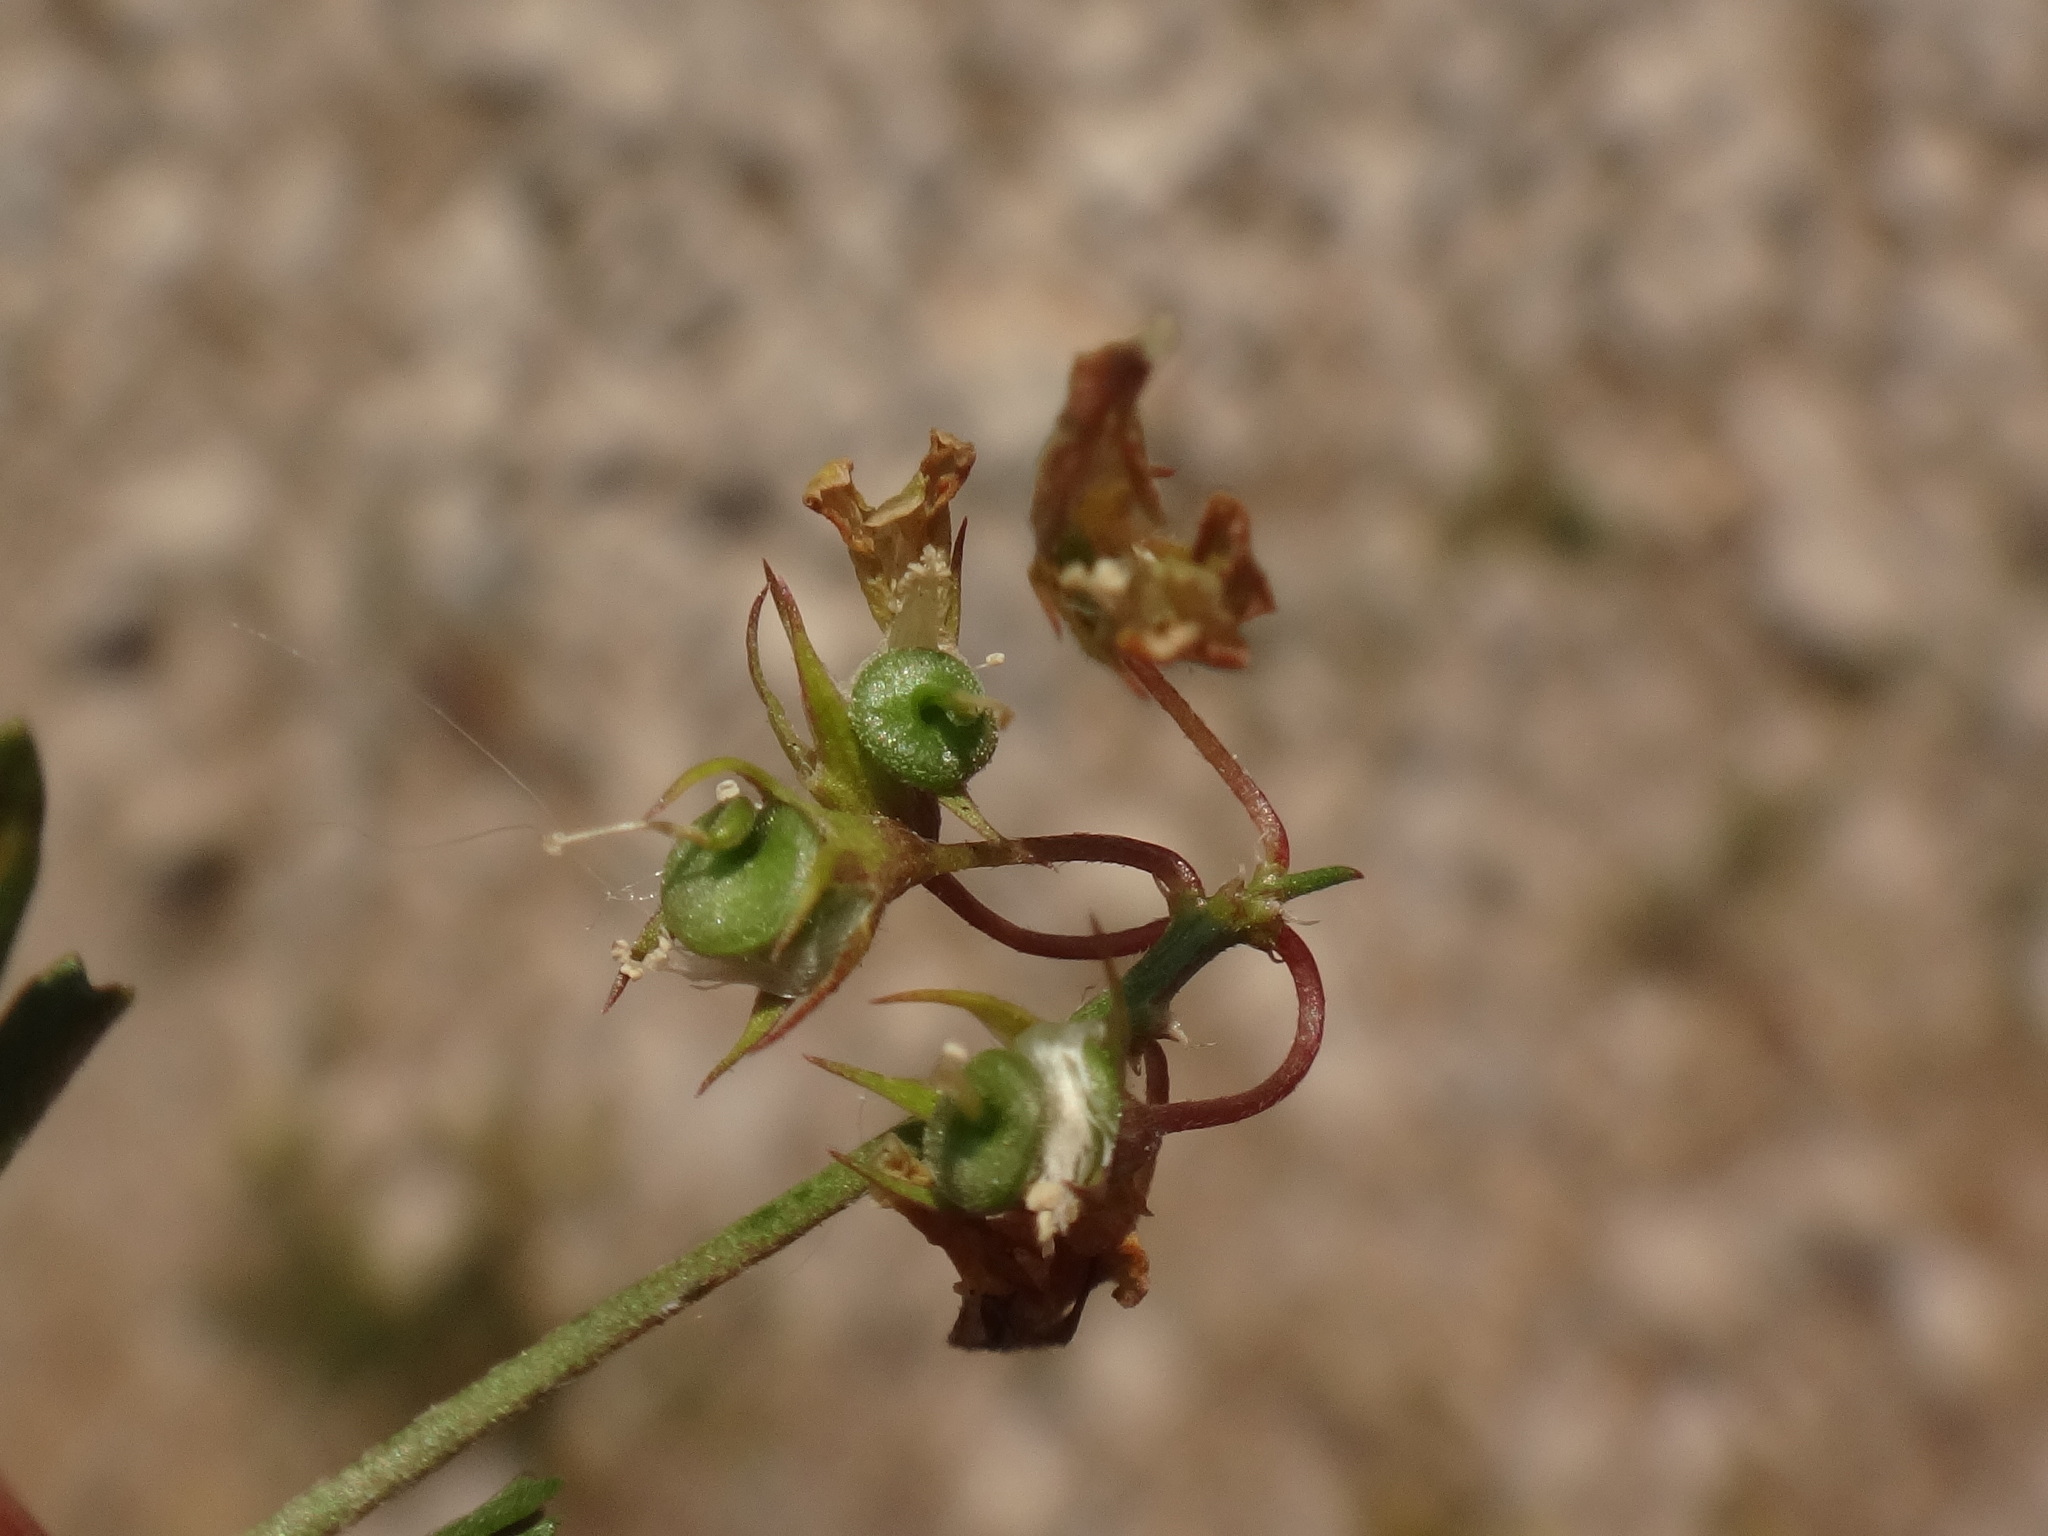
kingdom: Plantae
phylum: Tracheophyta
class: Magnoliopsida
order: Fabales
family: Fabaceae
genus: Medicago
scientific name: Medicago prostrata
